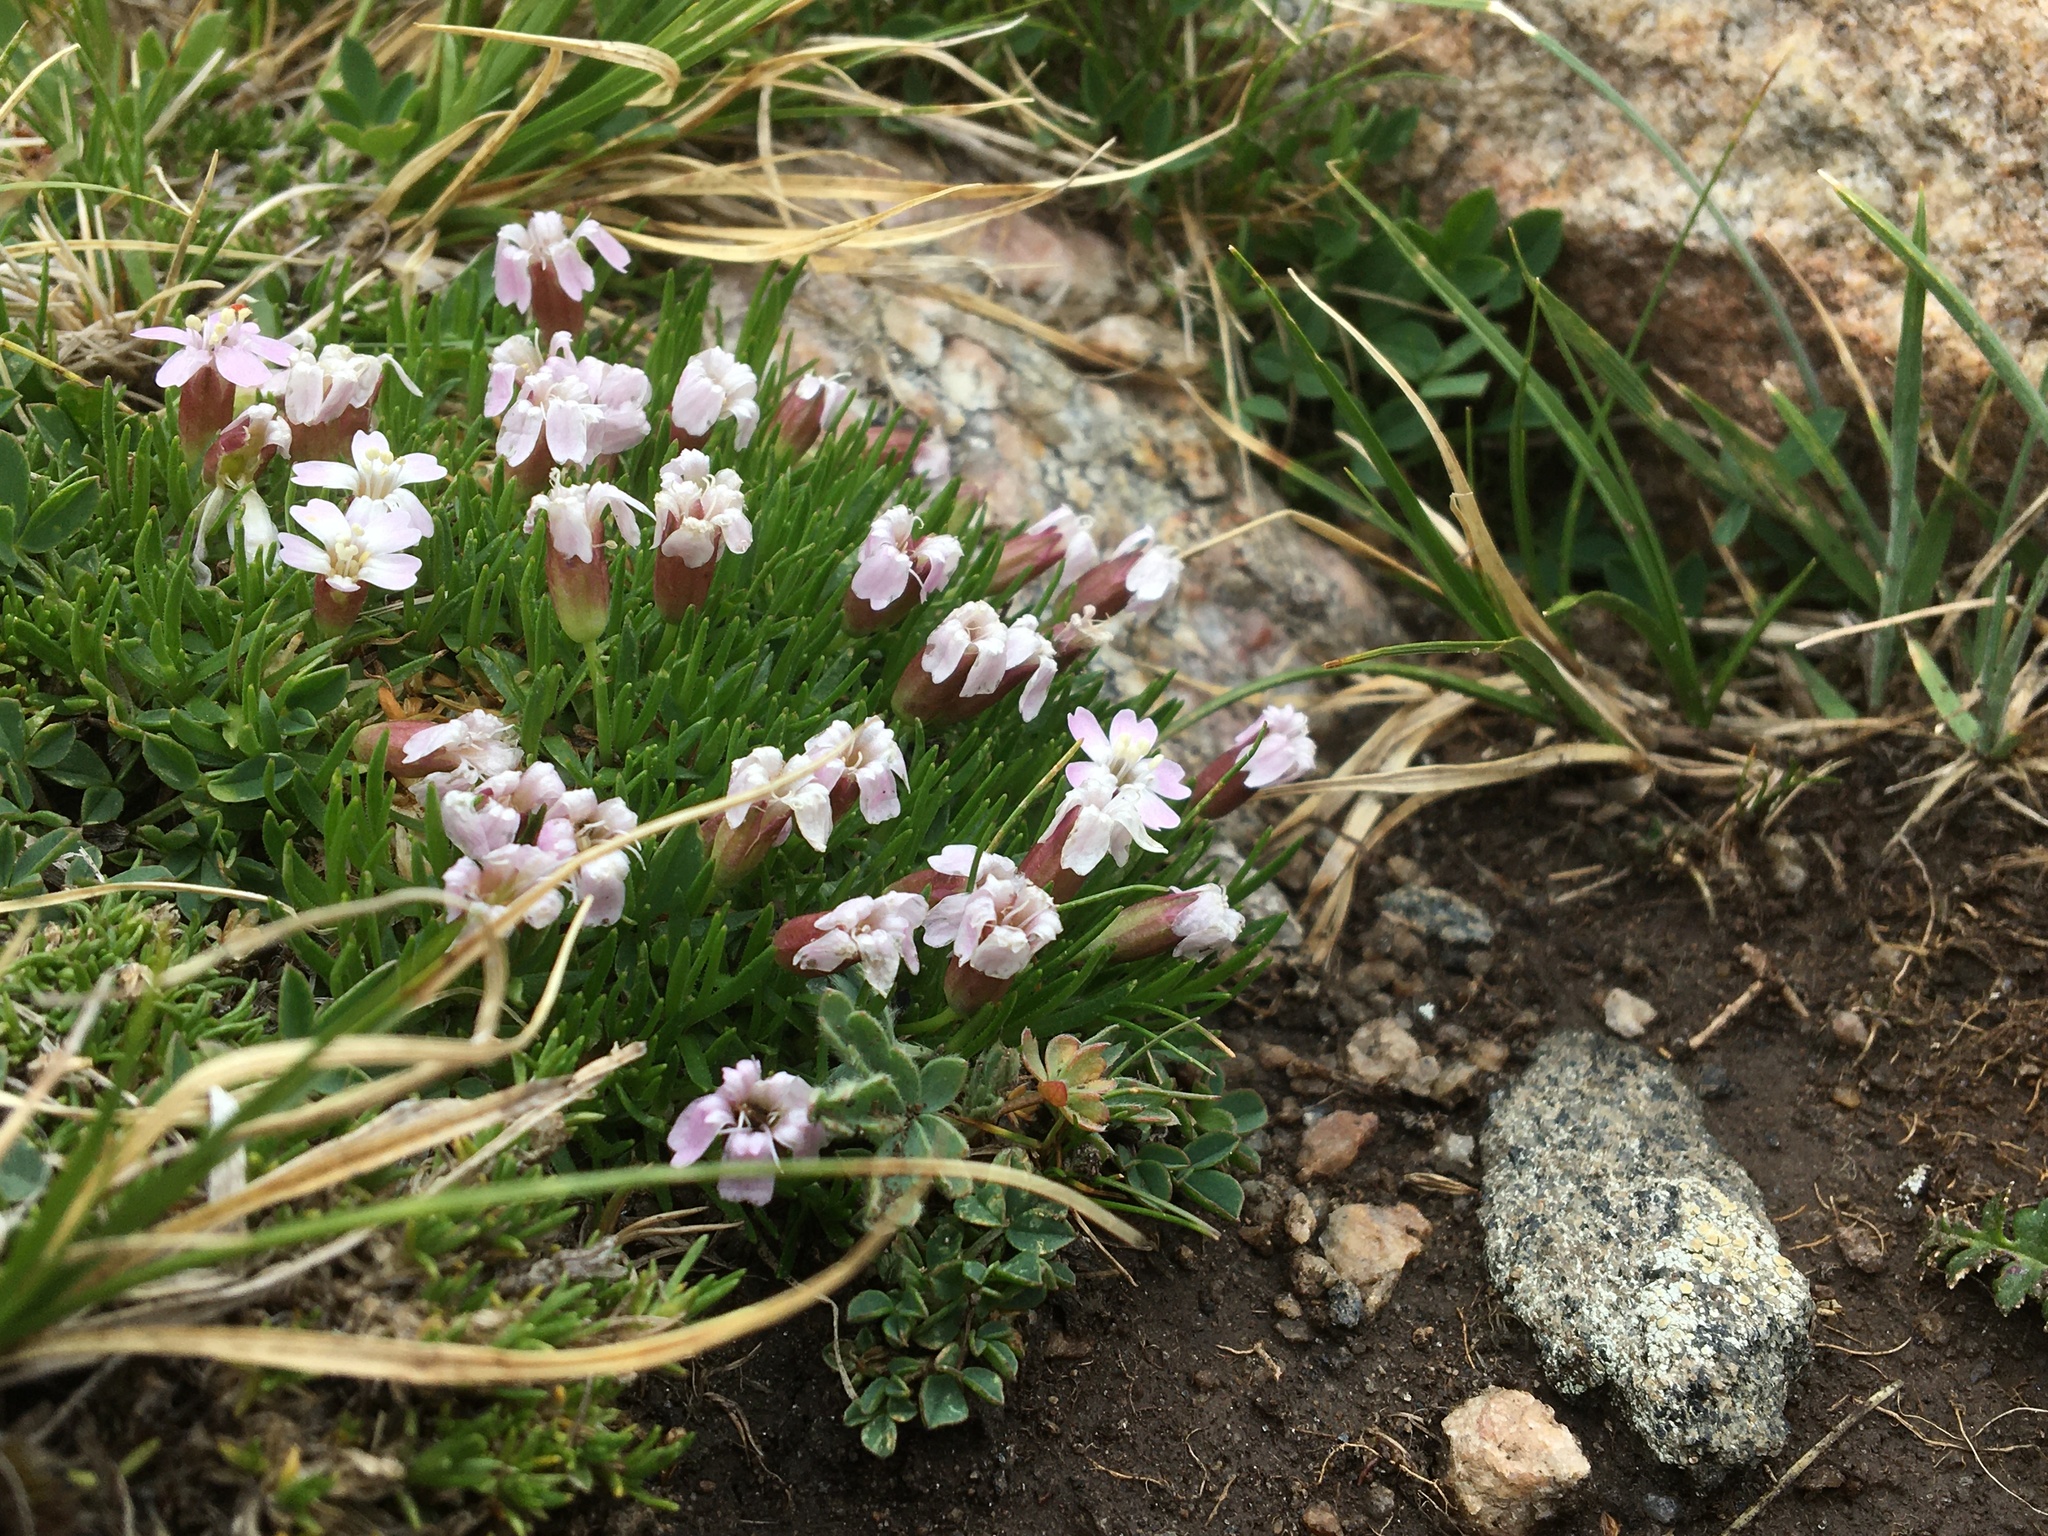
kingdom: Plantae
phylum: Tracheophyta
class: Magnoliopsida
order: Caryophyllales
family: Caryophyllaceae
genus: Silene
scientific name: Silene acaulis
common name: Moss campion
